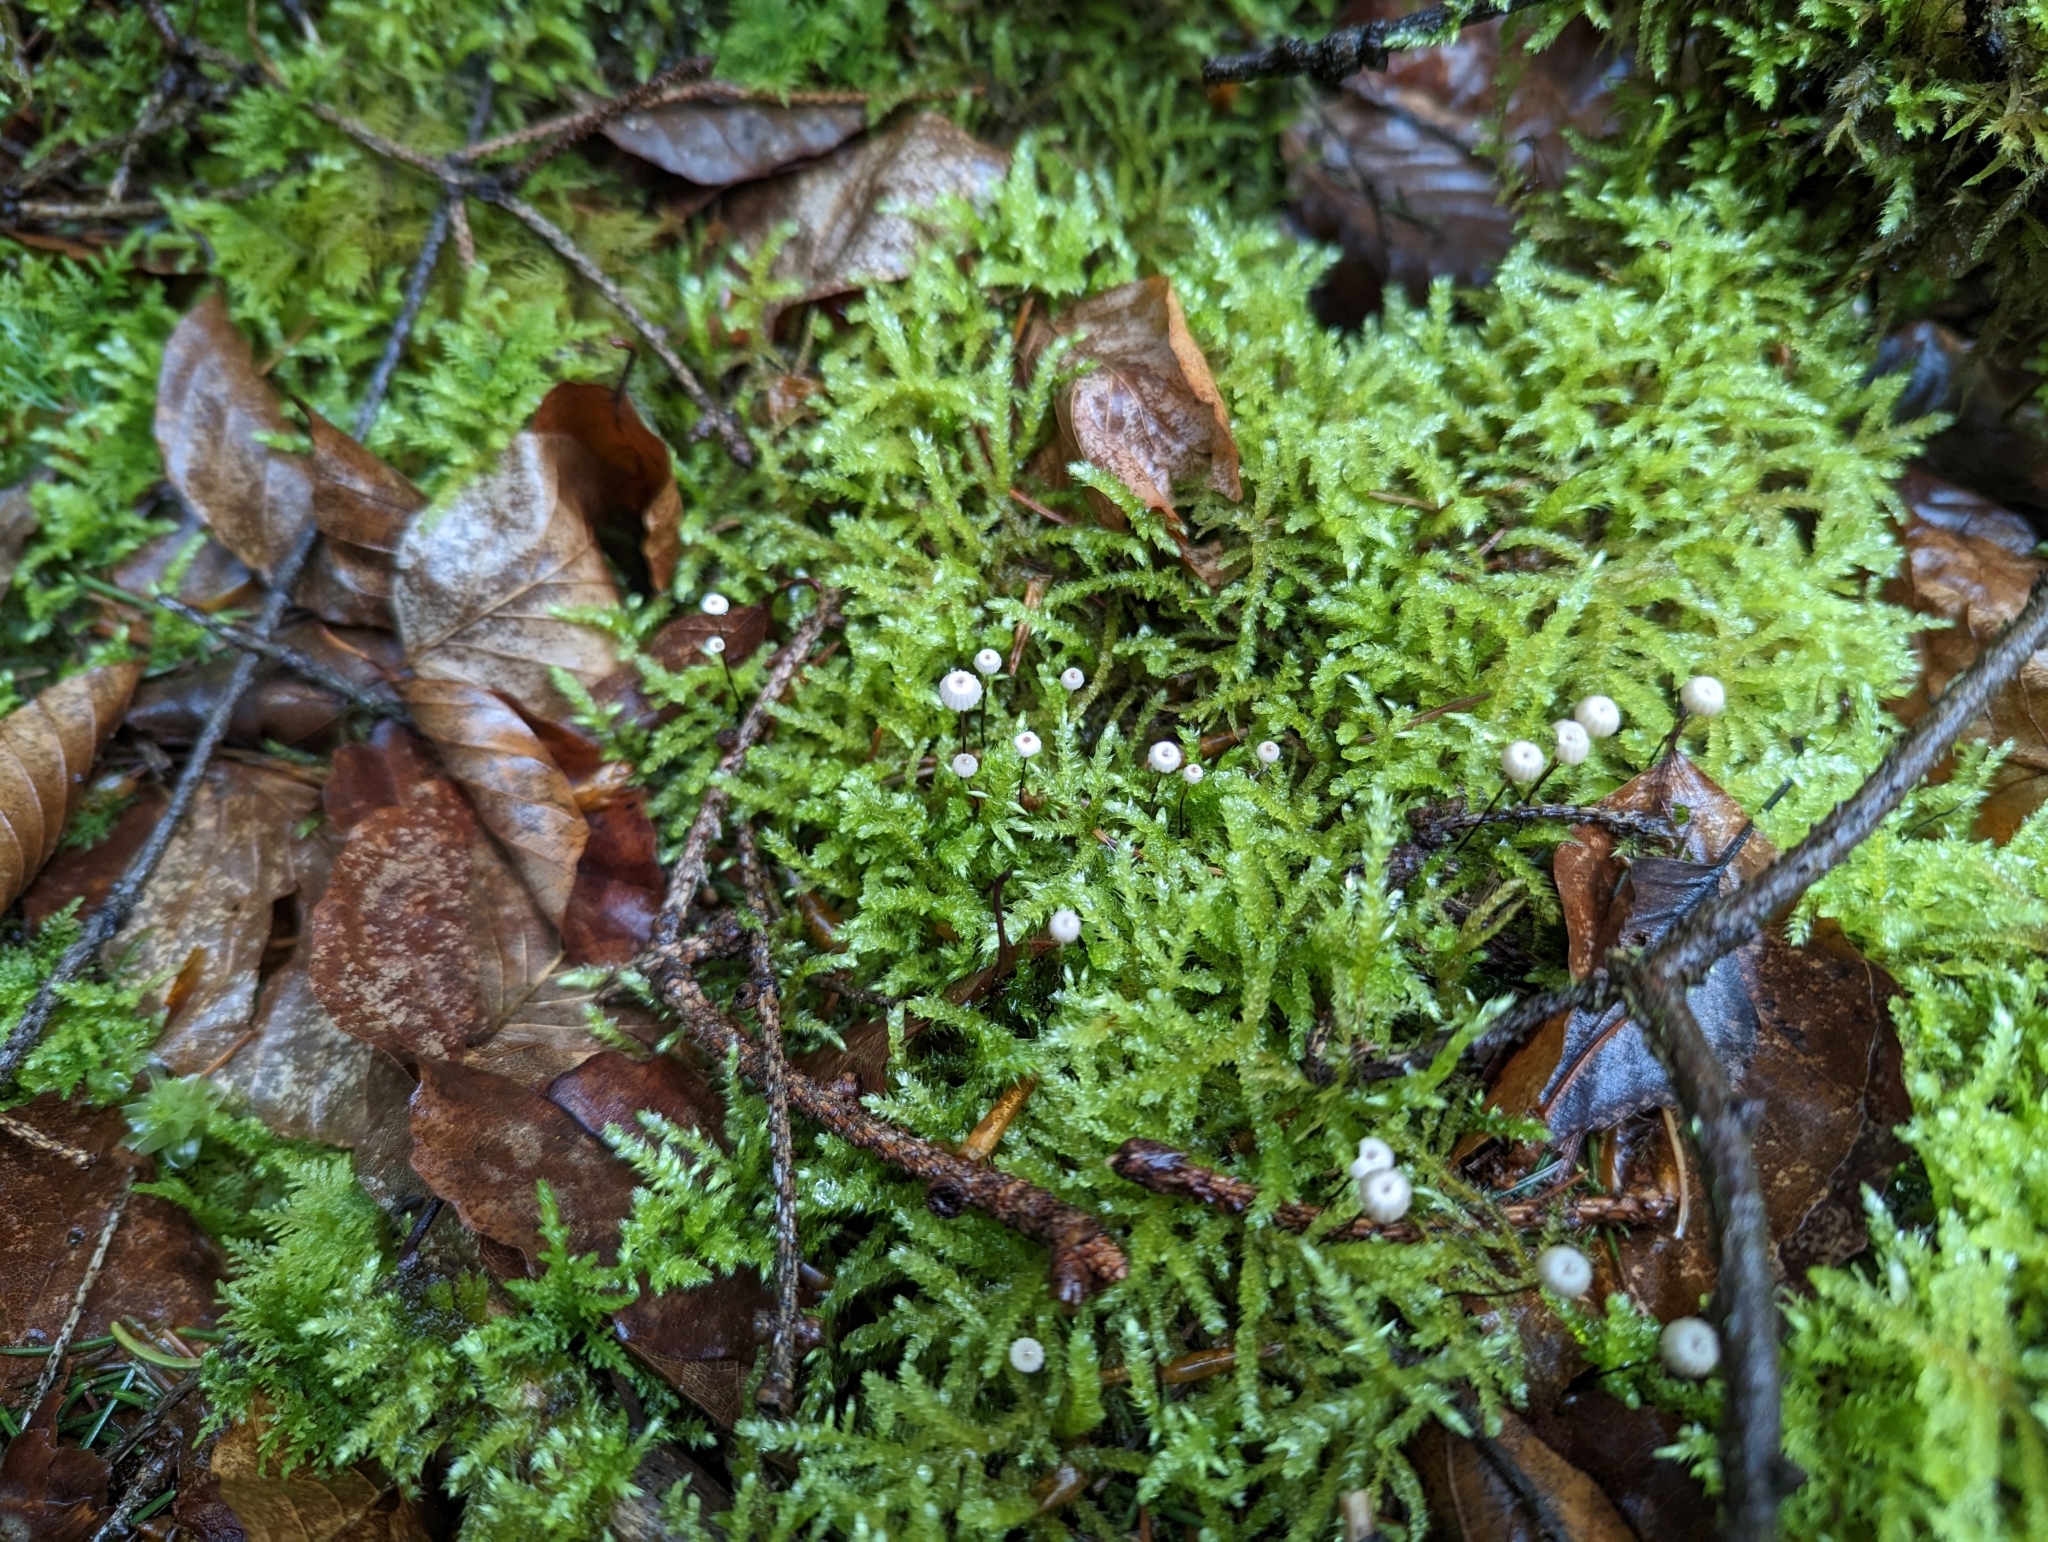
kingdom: Fungi
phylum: Basidiomycota
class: Agaricomycetes
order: Agaricales
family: Marasmiaceae
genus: Marasmius
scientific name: Marasmius rotula
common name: Collared parachute
